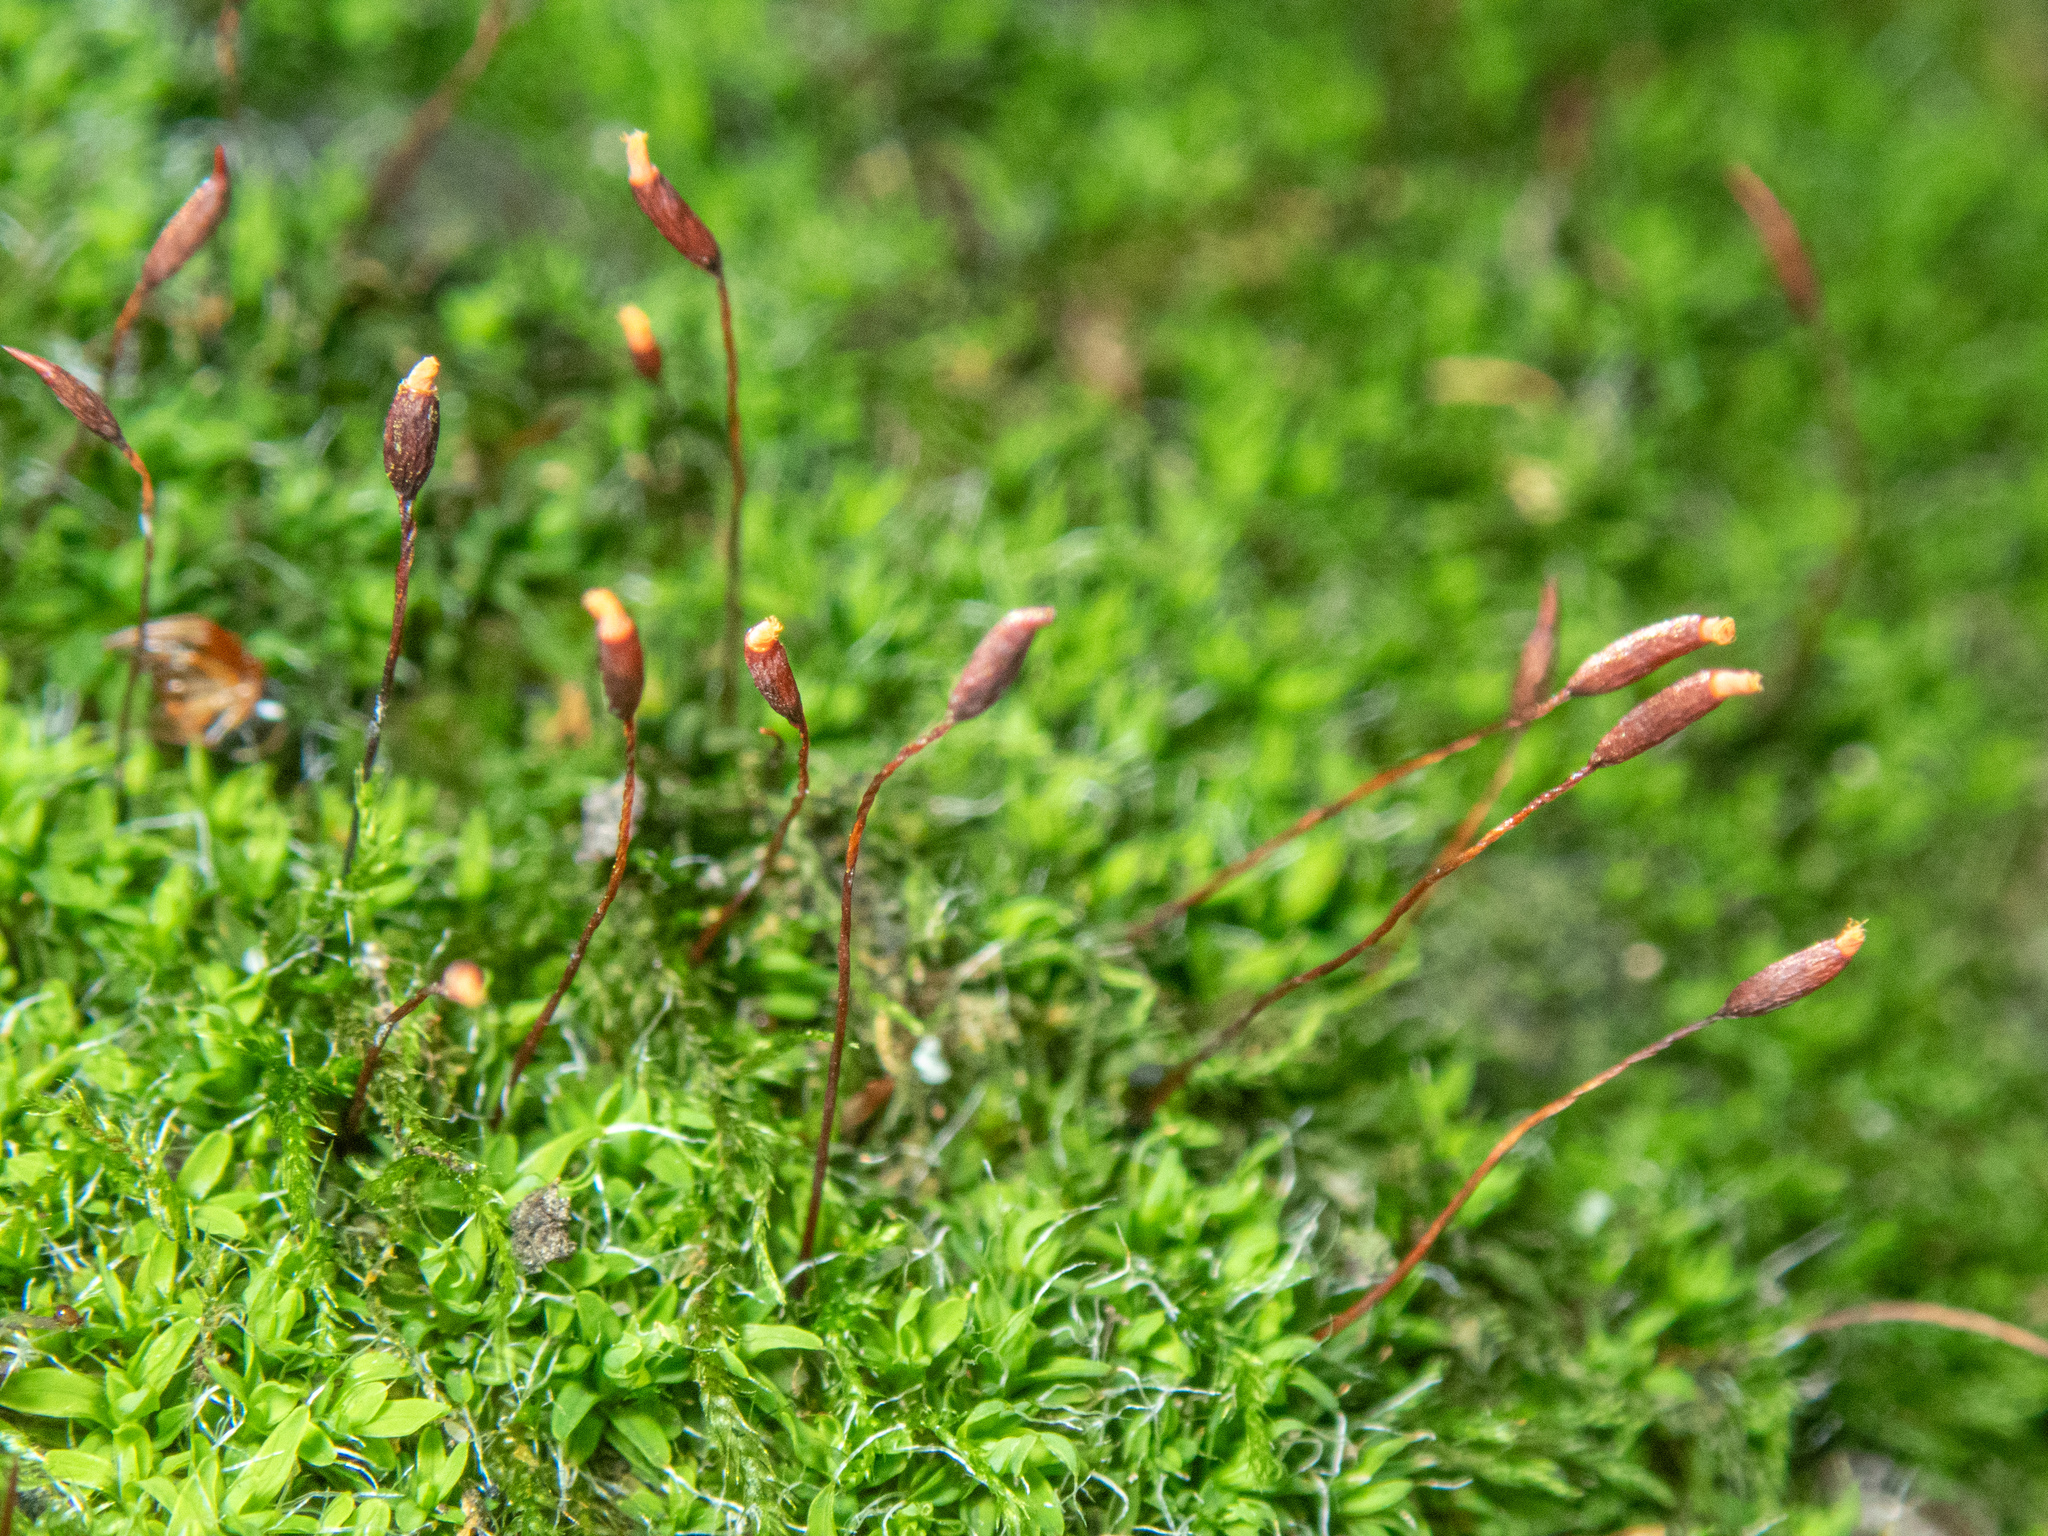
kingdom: Plantae
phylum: Bryophyta
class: Bryopsida
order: Pottiales
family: Pottiaceae
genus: Tortula
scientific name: Tortula muralis
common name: Wall screw-moss
